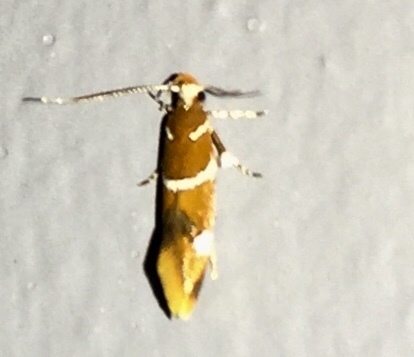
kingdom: Animalia
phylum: Arthropoda
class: Insecta
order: Lepidoptera
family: Oecophoridae
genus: Promalactis
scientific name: Promalactis suzukiella
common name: Moth
